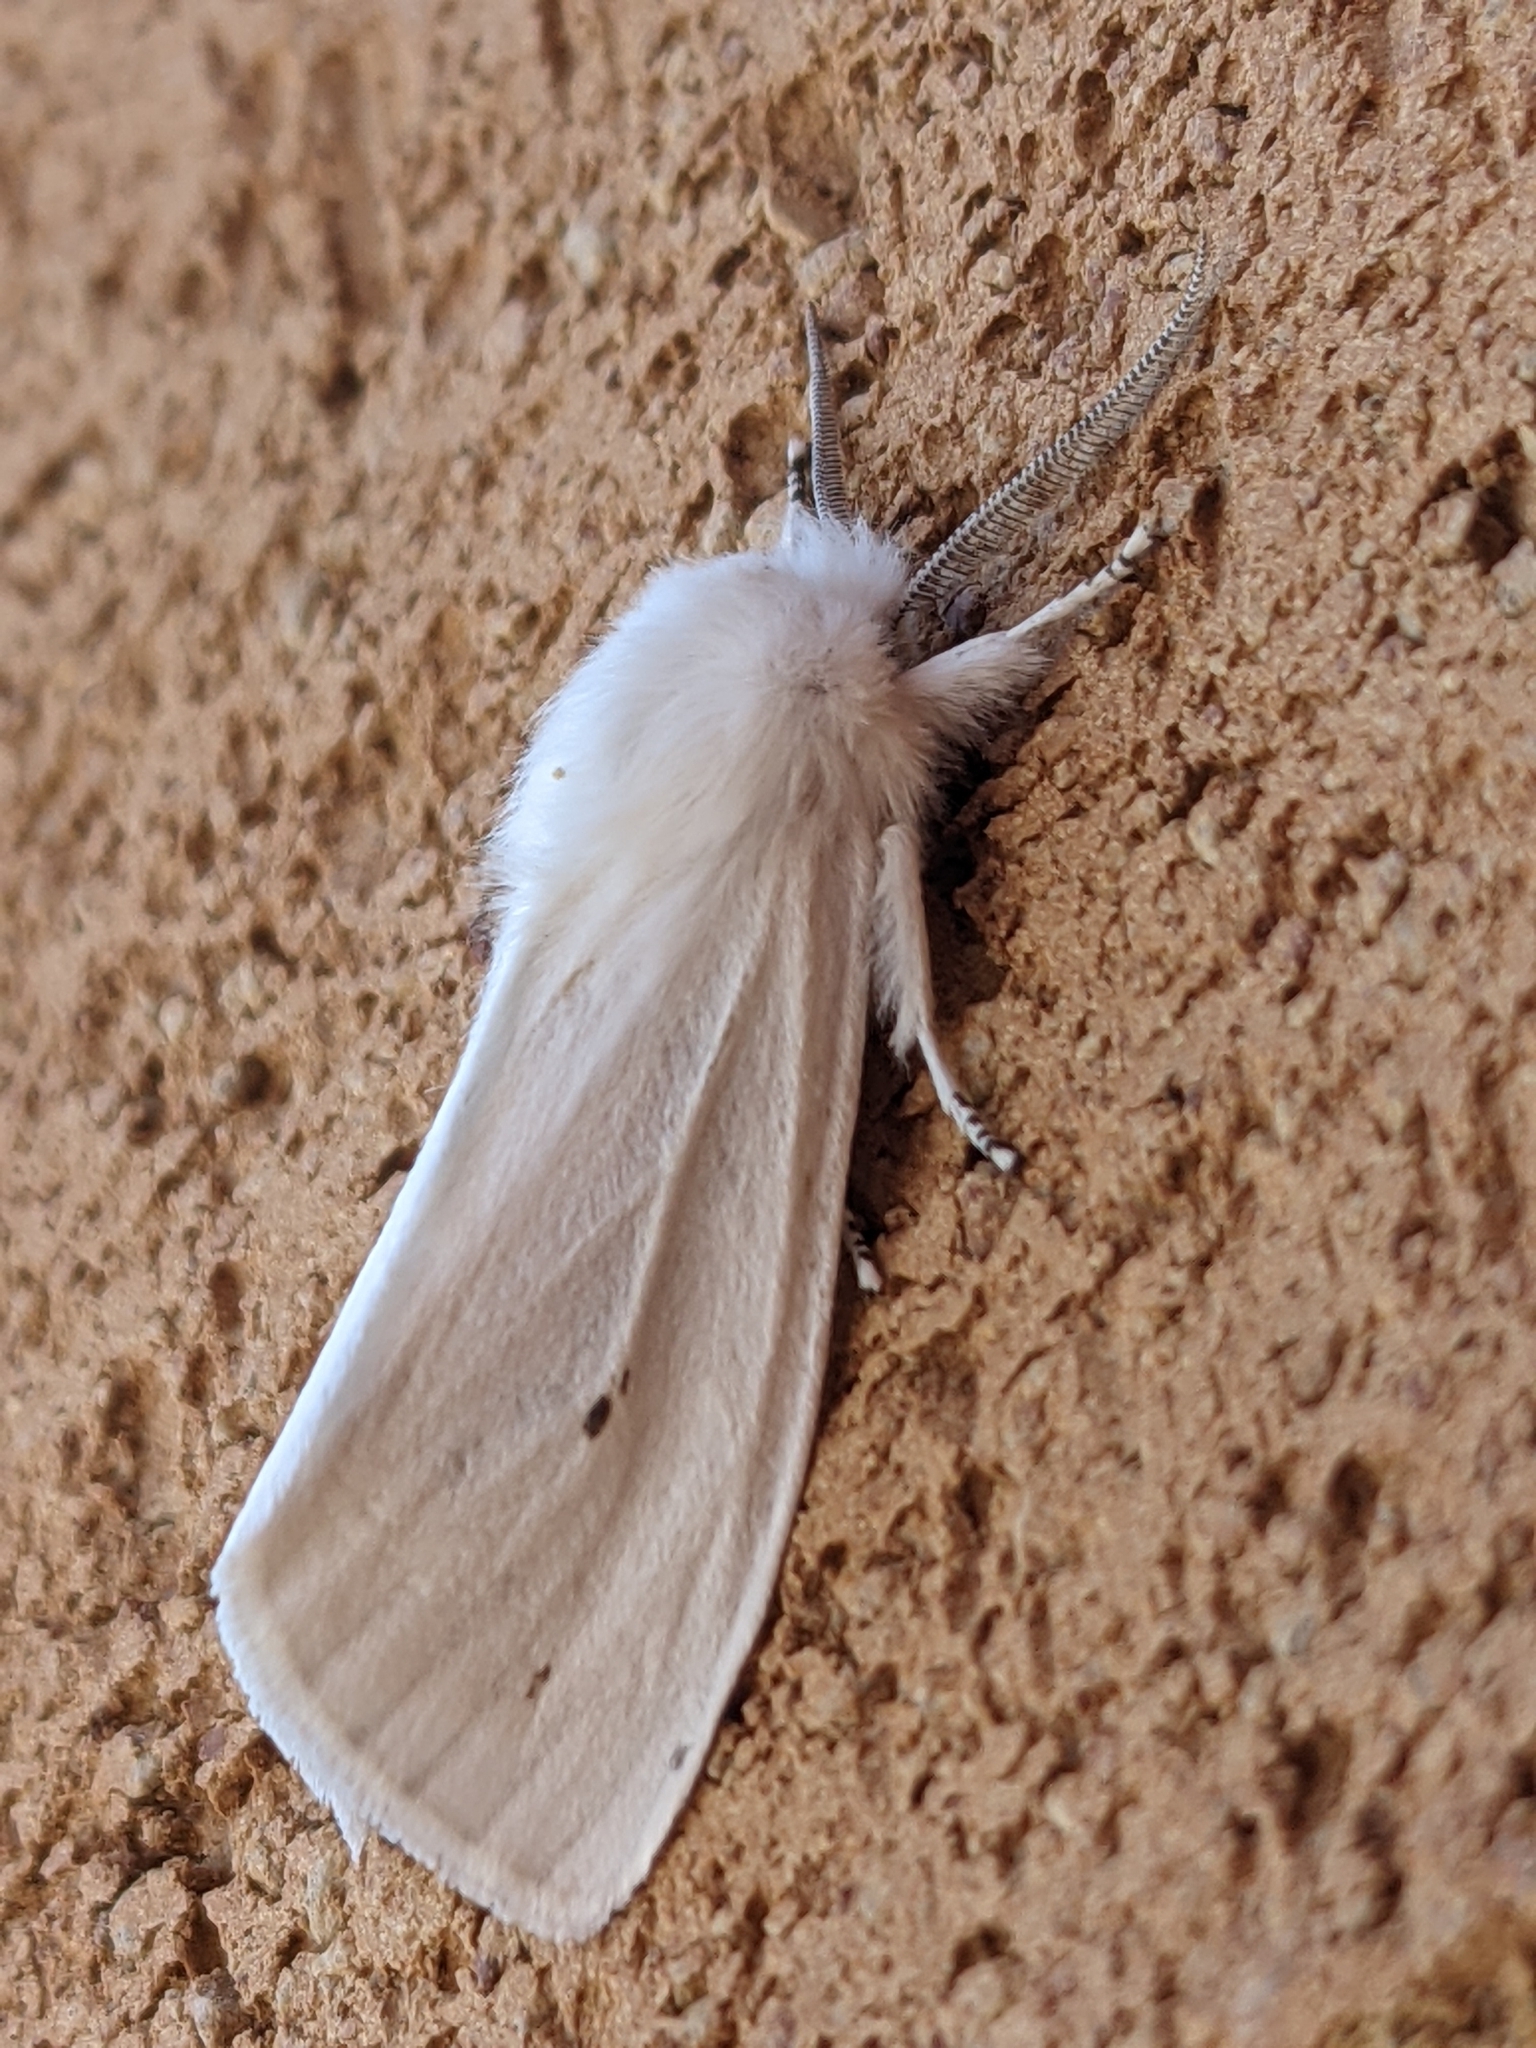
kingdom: Animalia
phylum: Arthropoda
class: Insecta
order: Lepidoptera
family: Erebidae
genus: Spilosoma
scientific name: Spilosoma virginica
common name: Virginia tiger moth
